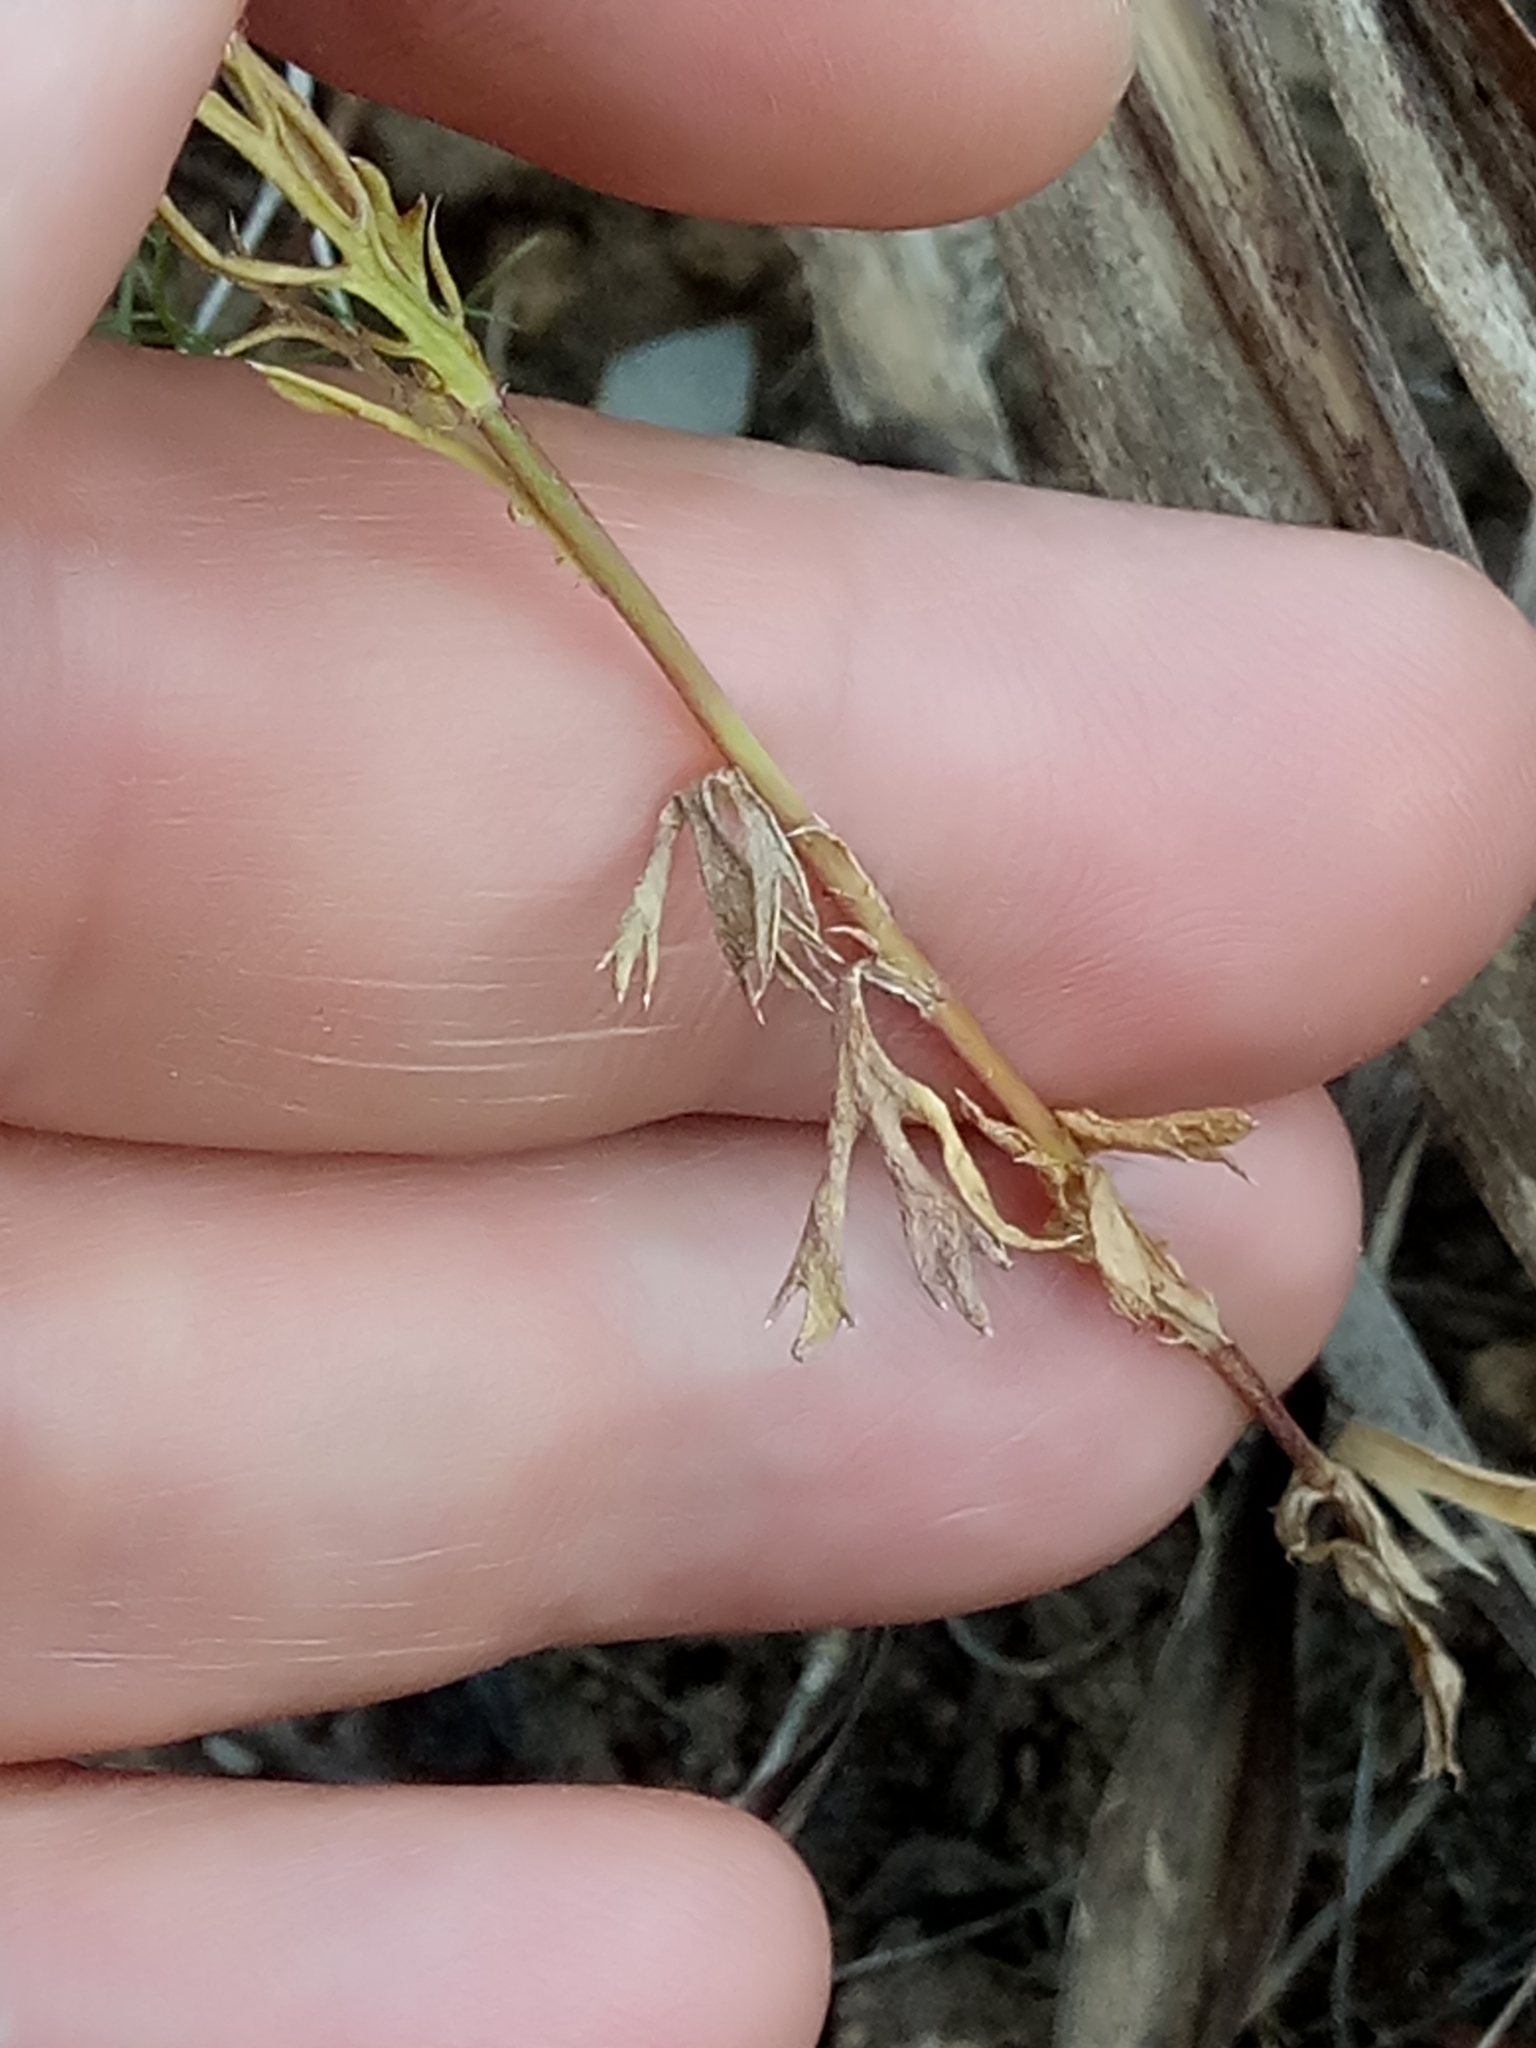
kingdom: Plantae
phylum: Tracheophyta
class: Magnoliopsida
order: Asterales
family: Asteraceae
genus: Lonas
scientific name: Lonas annua
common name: African daisy
